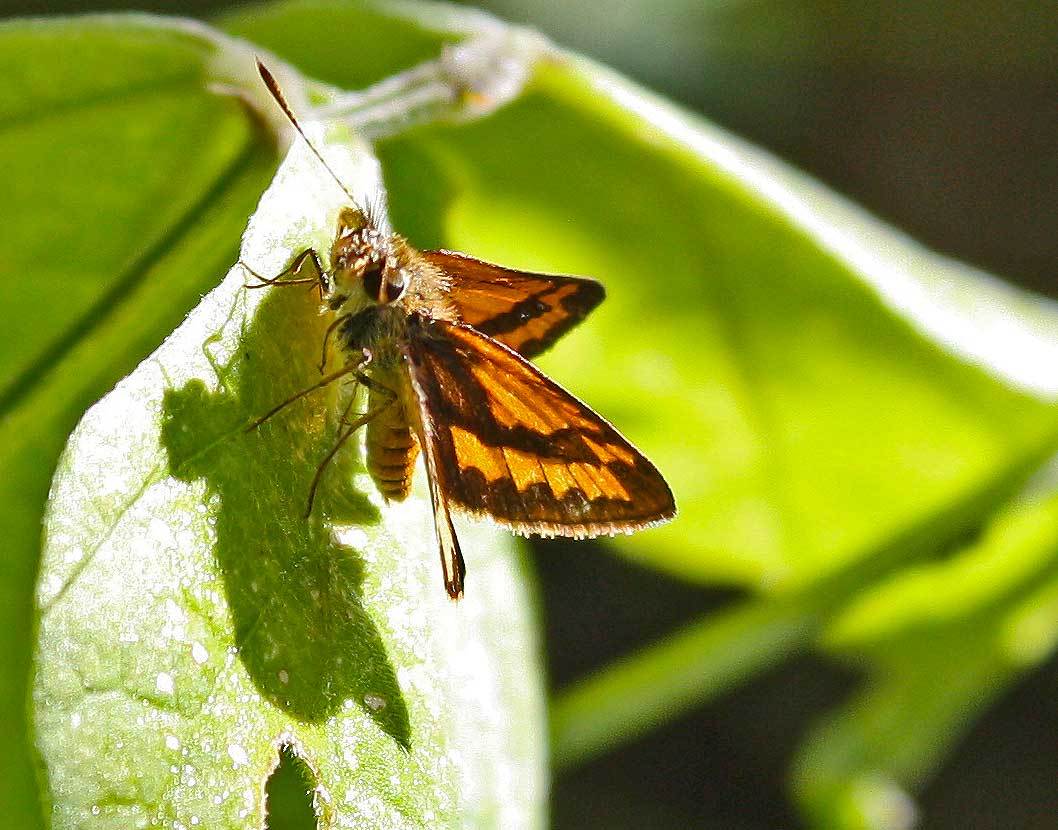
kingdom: Animalia
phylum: Arthropoda
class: Insecta
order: Lepidoptera
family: Hesperiidae
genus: Suniana
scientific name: Suniana sunias
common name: Wide-brand grass-dart
